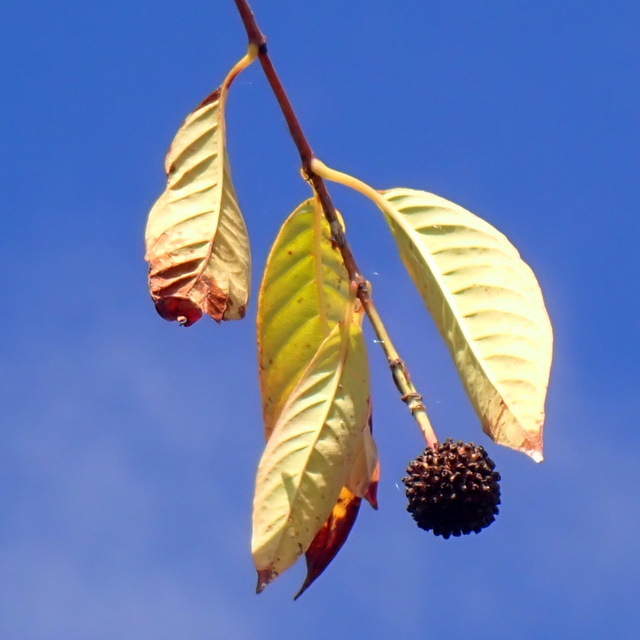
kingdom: Plantae
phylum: Tracheophyta
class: Magnoliopsida
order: Gentianales
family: Rubiaceae
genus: Cephalanthus
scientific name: Cephalanthus occidentalis
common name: Button-willow
